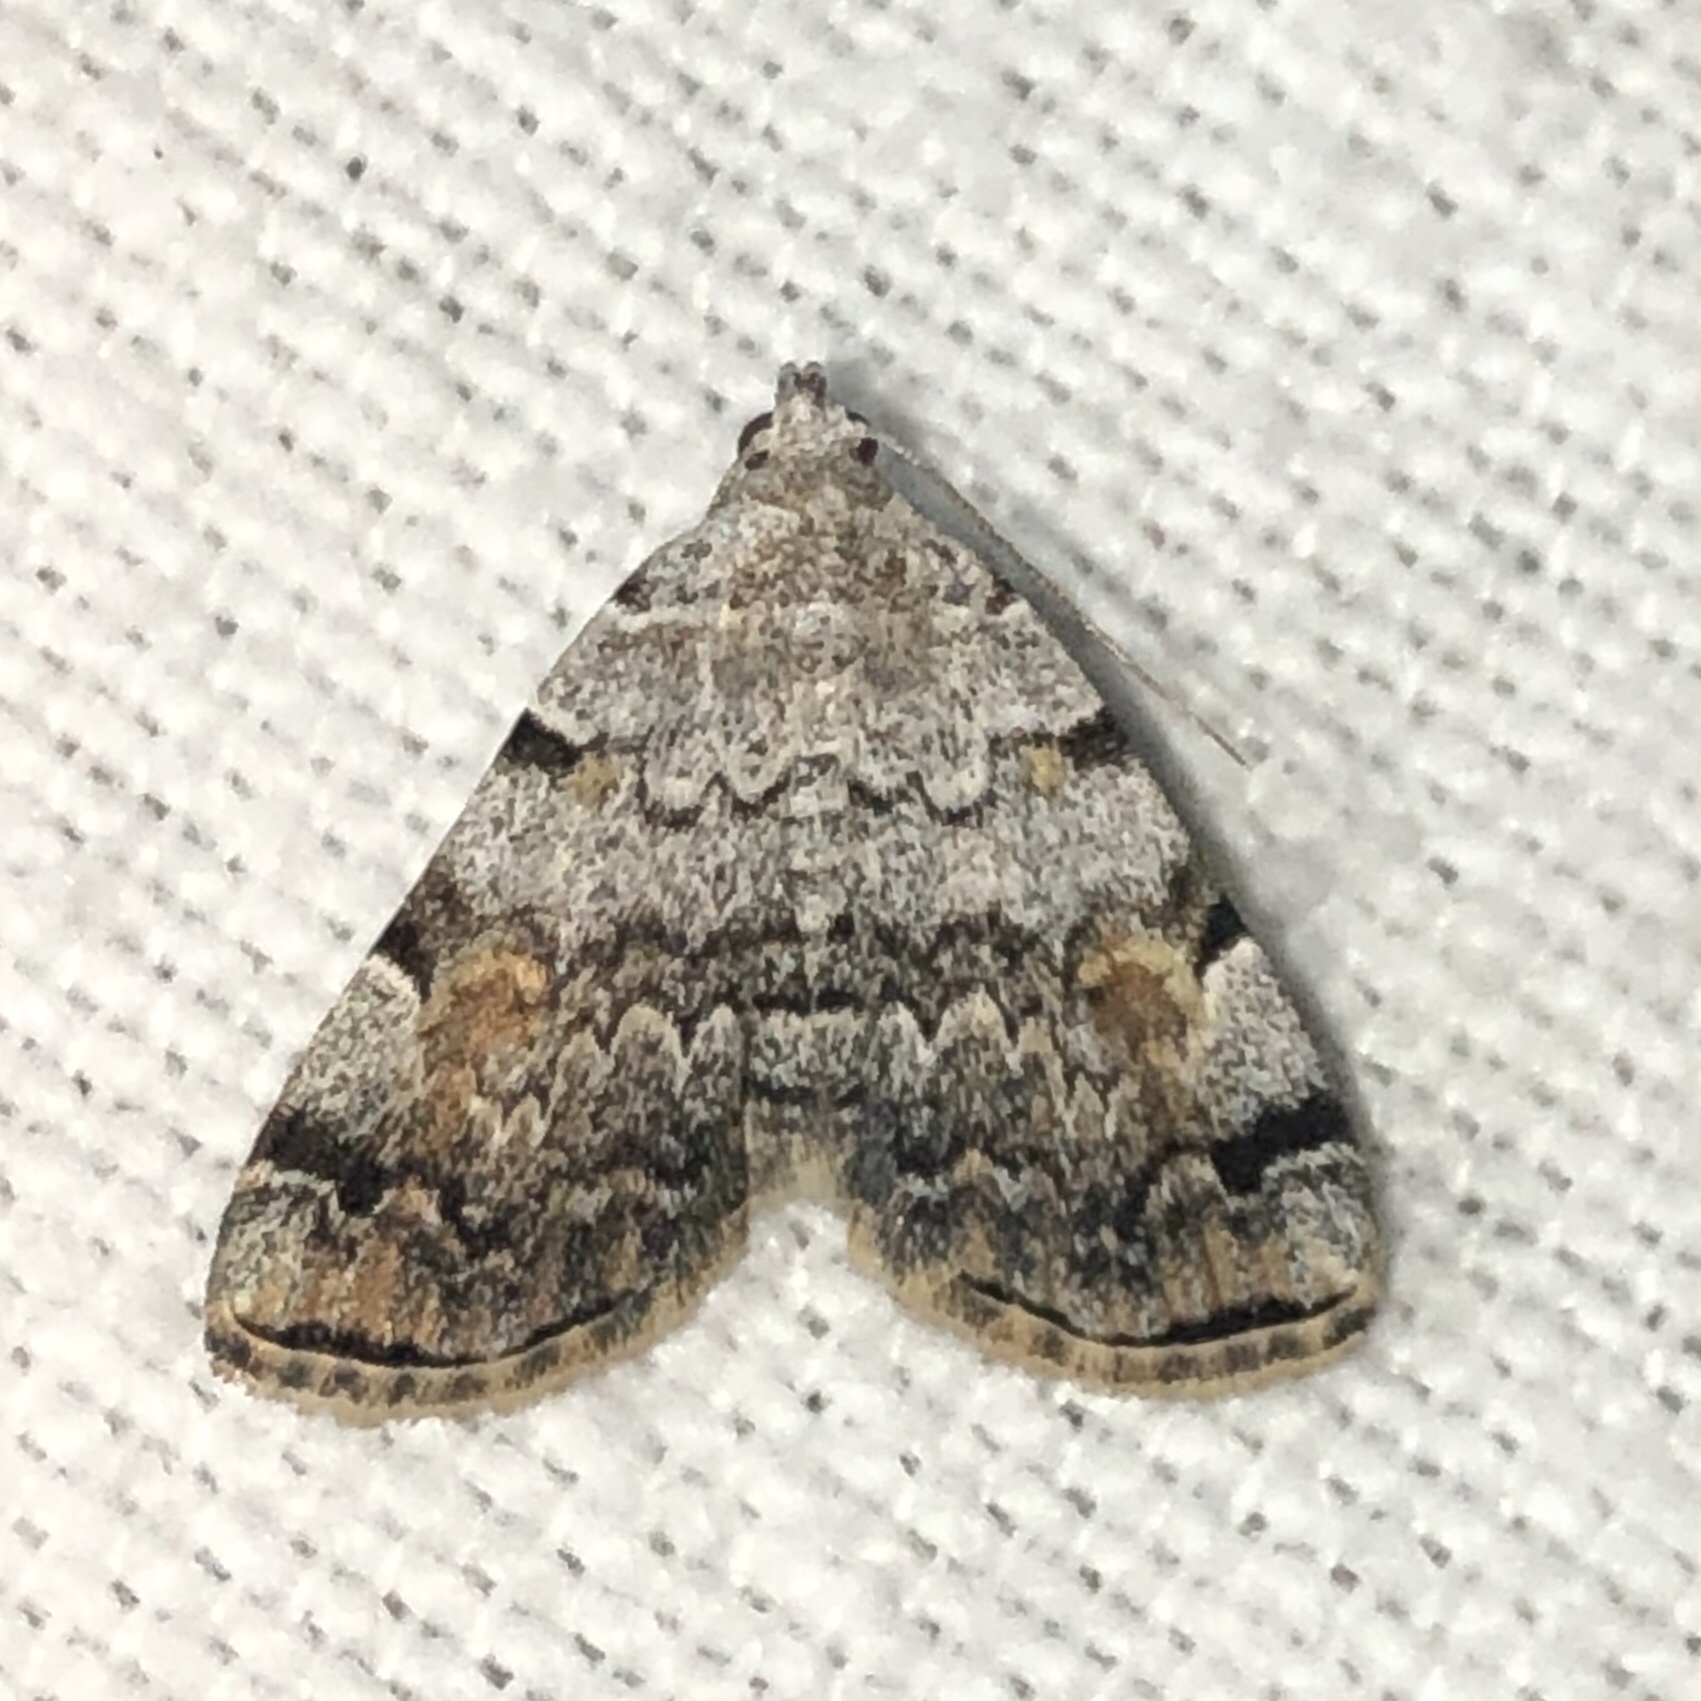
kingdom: Animalia
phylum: Arthropoda
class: Insecta
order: Lepidoptera
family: Erebidae
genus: Idia
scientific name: Idia americalis
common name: American idia moth
